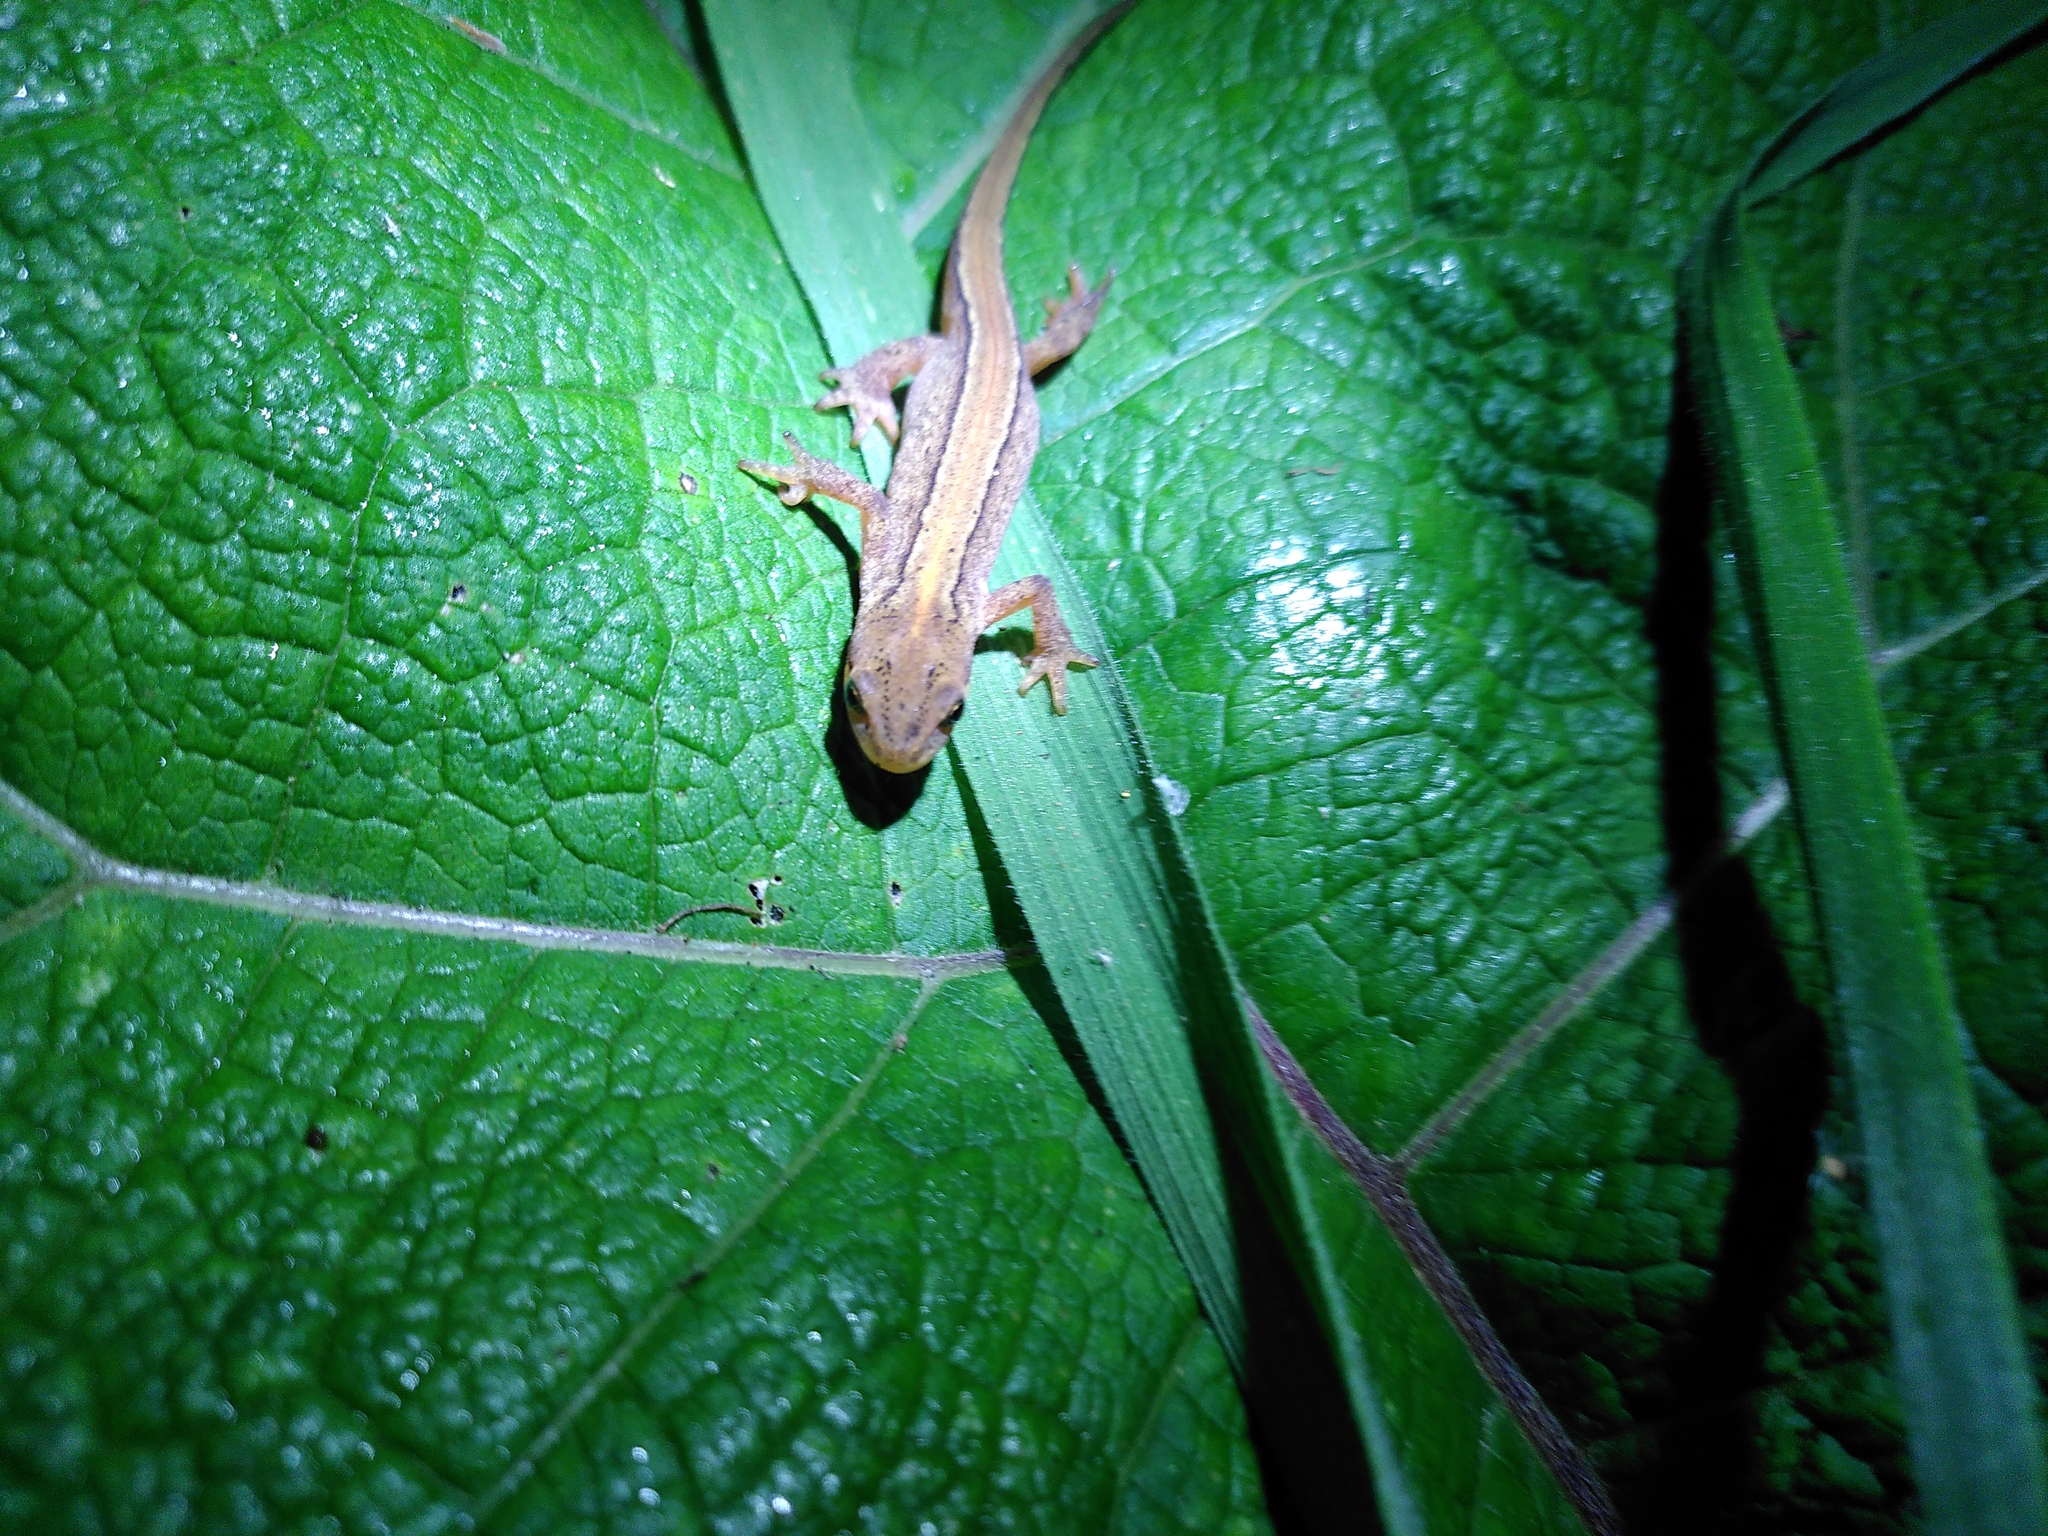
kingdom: Animalia
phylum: Chordata
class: Amphibia
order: Caudata
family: Salamandridae
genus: Lissotriton
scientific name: Lissotriton vulgaris
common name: Smooth newt
